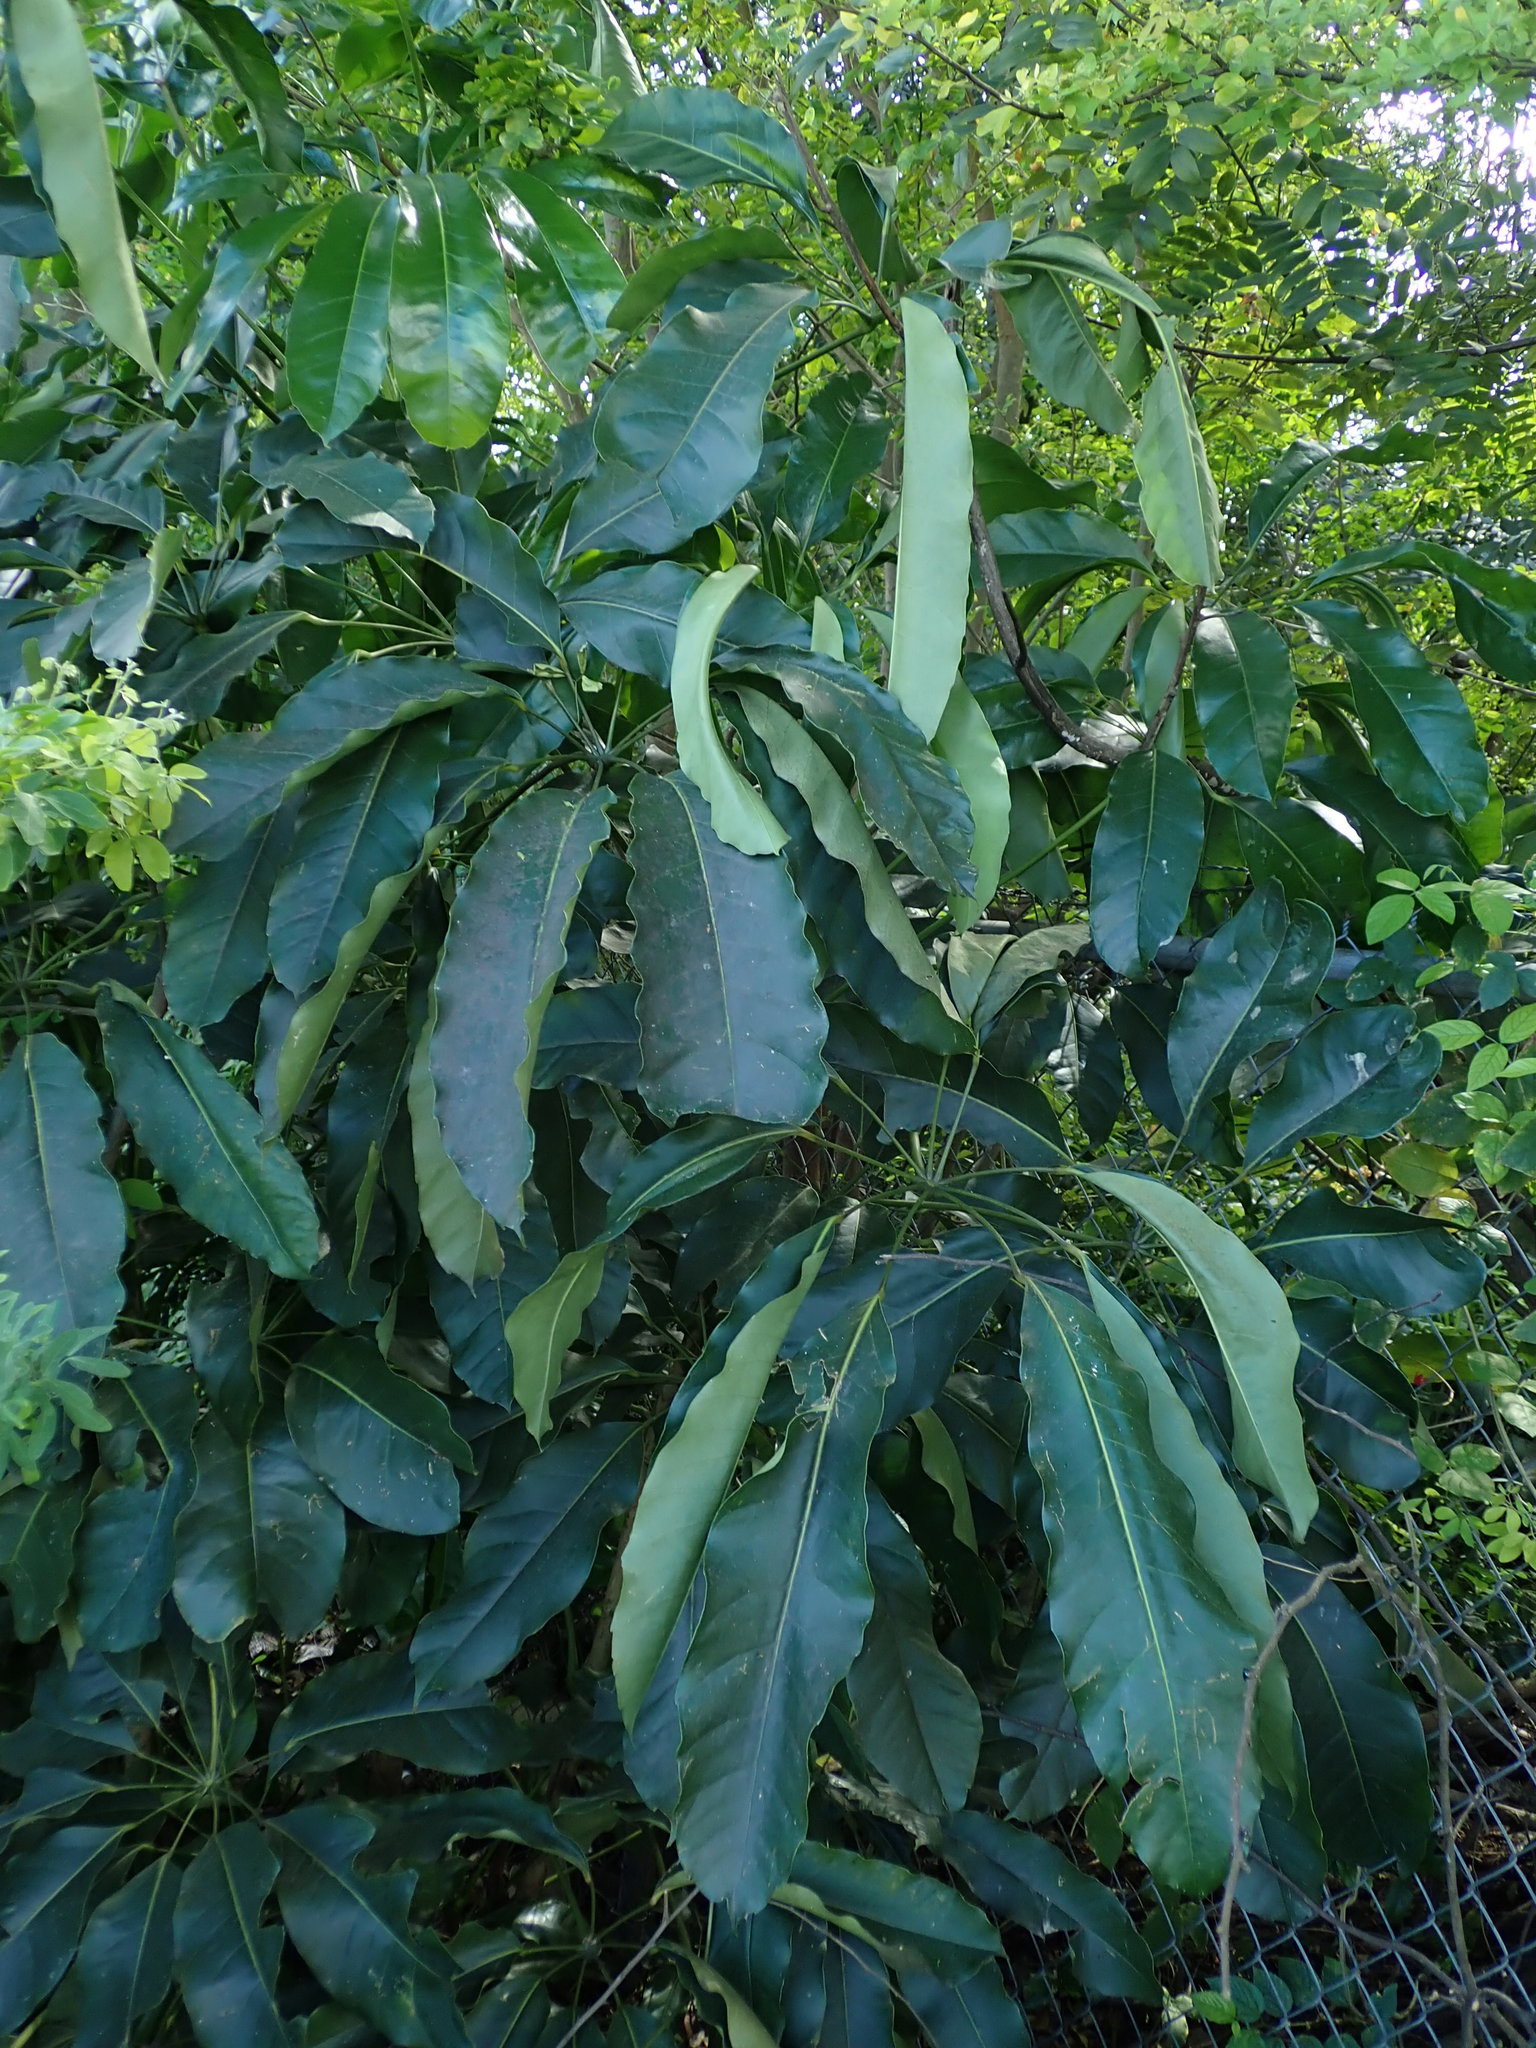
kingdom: Plantae
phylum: Tracheophyta
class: Magnoliopsida
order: Apiales
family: Araliaceae
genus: Heptapleurum
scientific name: Heptapleurum actinophyllum
